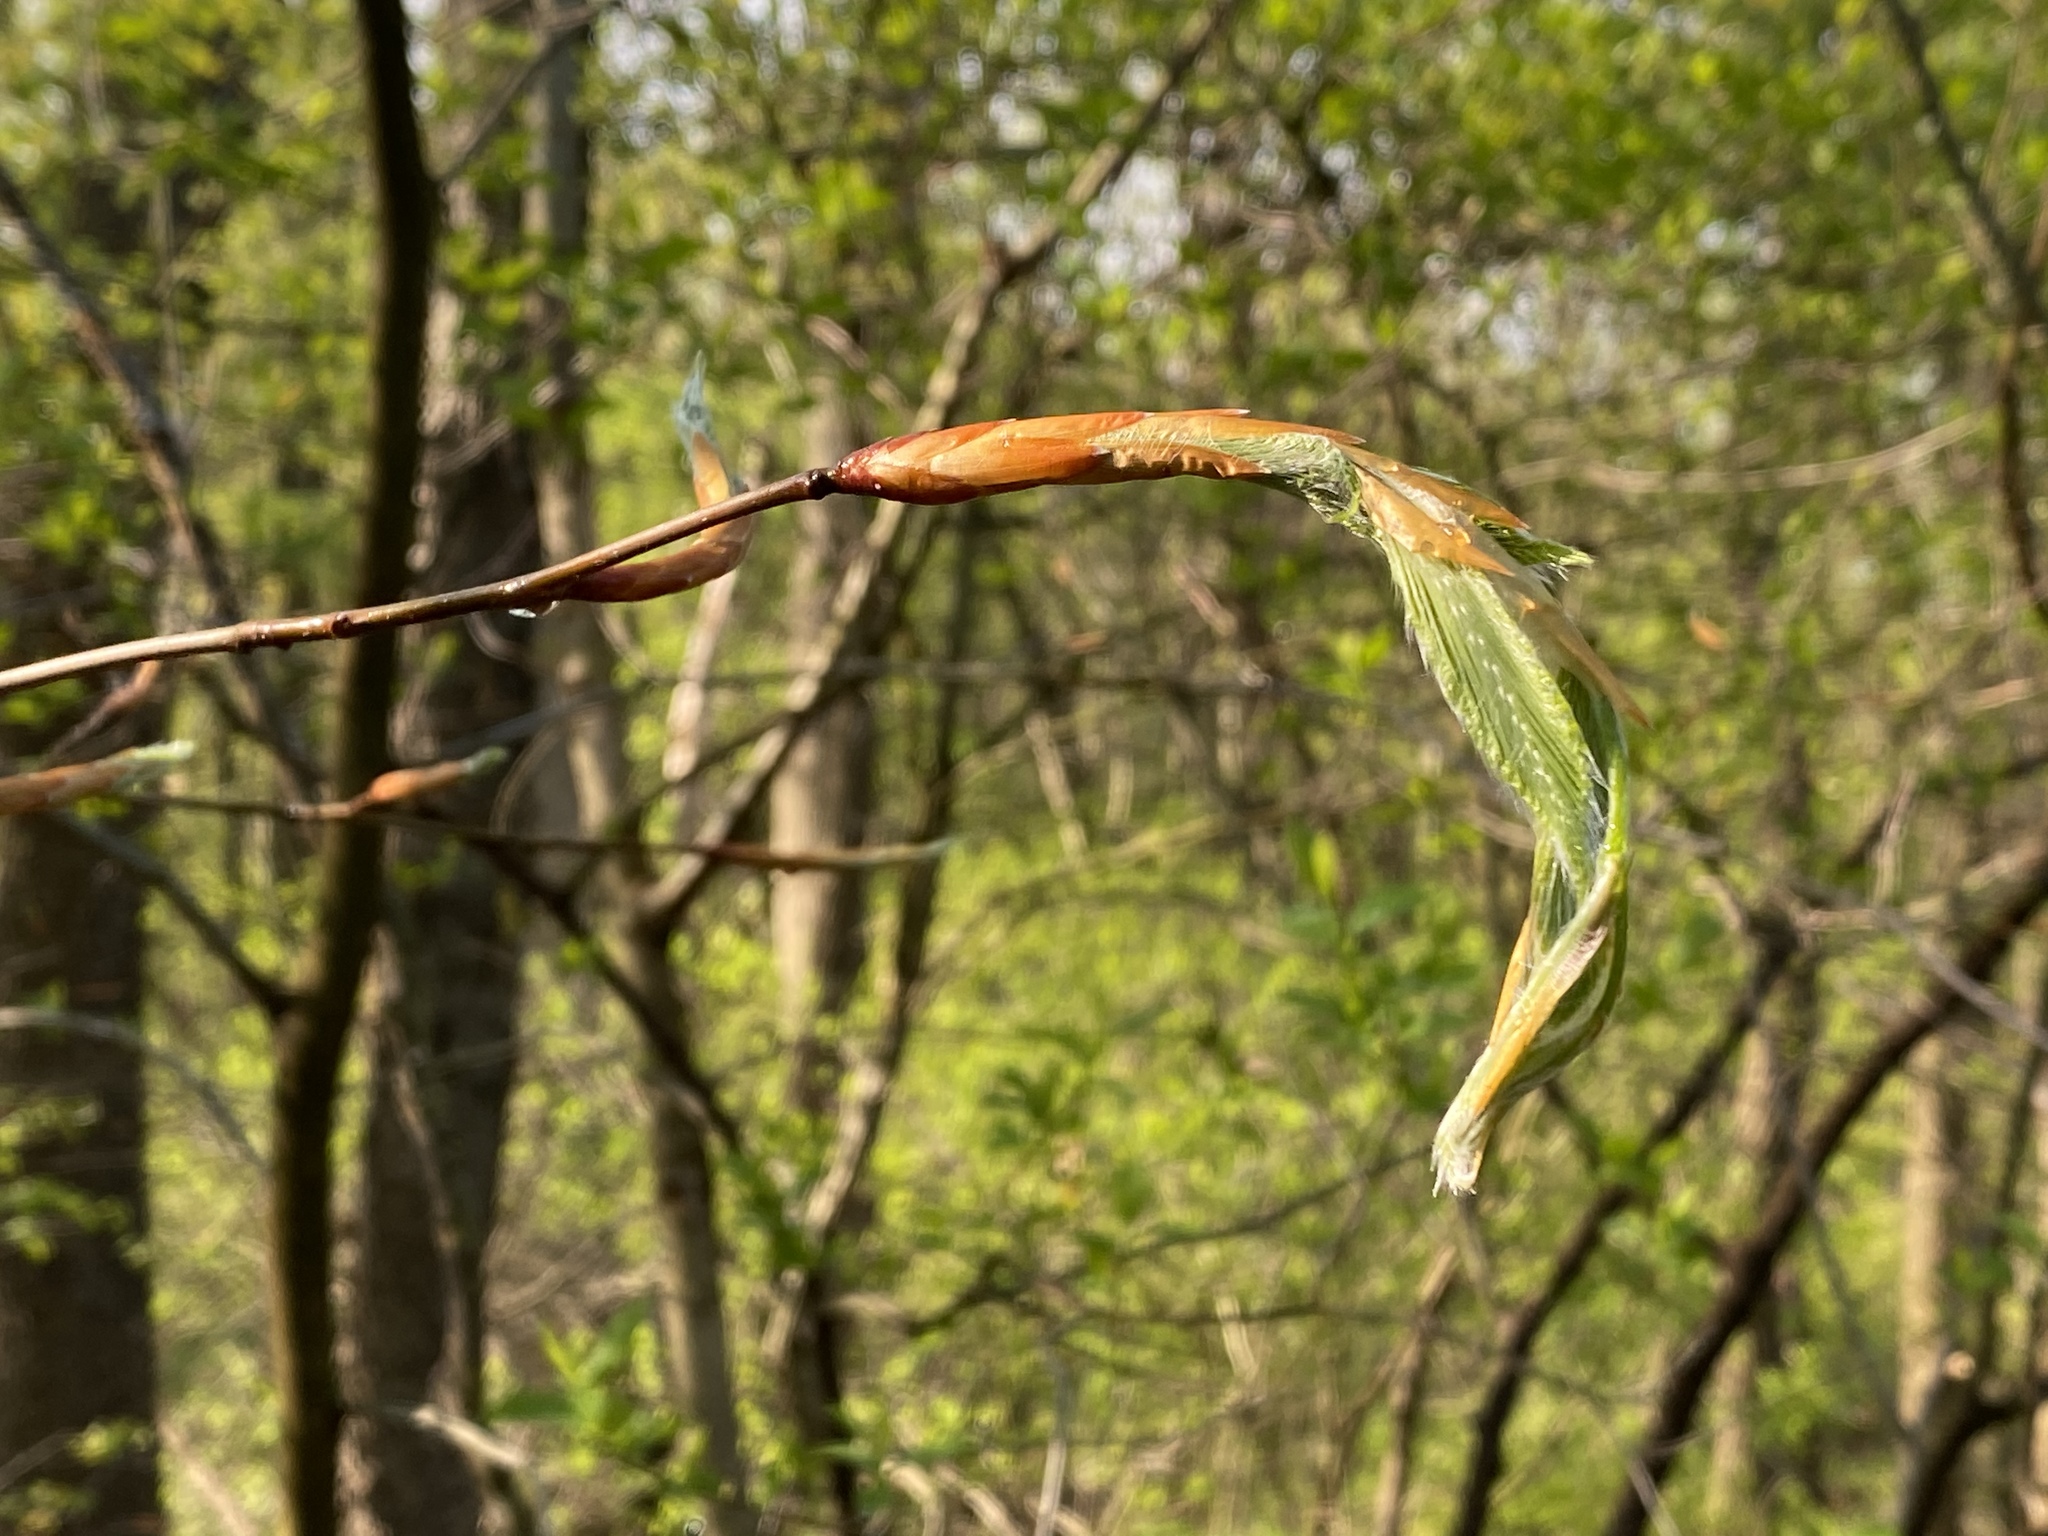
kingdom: Plantae
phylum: Tracheophyta
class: Magnoliopsida
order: Fagales
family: Fagaceae
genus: Fagus
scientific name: Fagus grandifolia
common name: American beech
